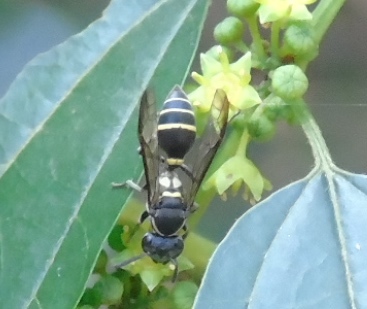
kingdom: Animalia
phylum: Arthropoda
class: Insecta
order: Hymenoptera
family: Vespidae
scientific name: Vespidae
